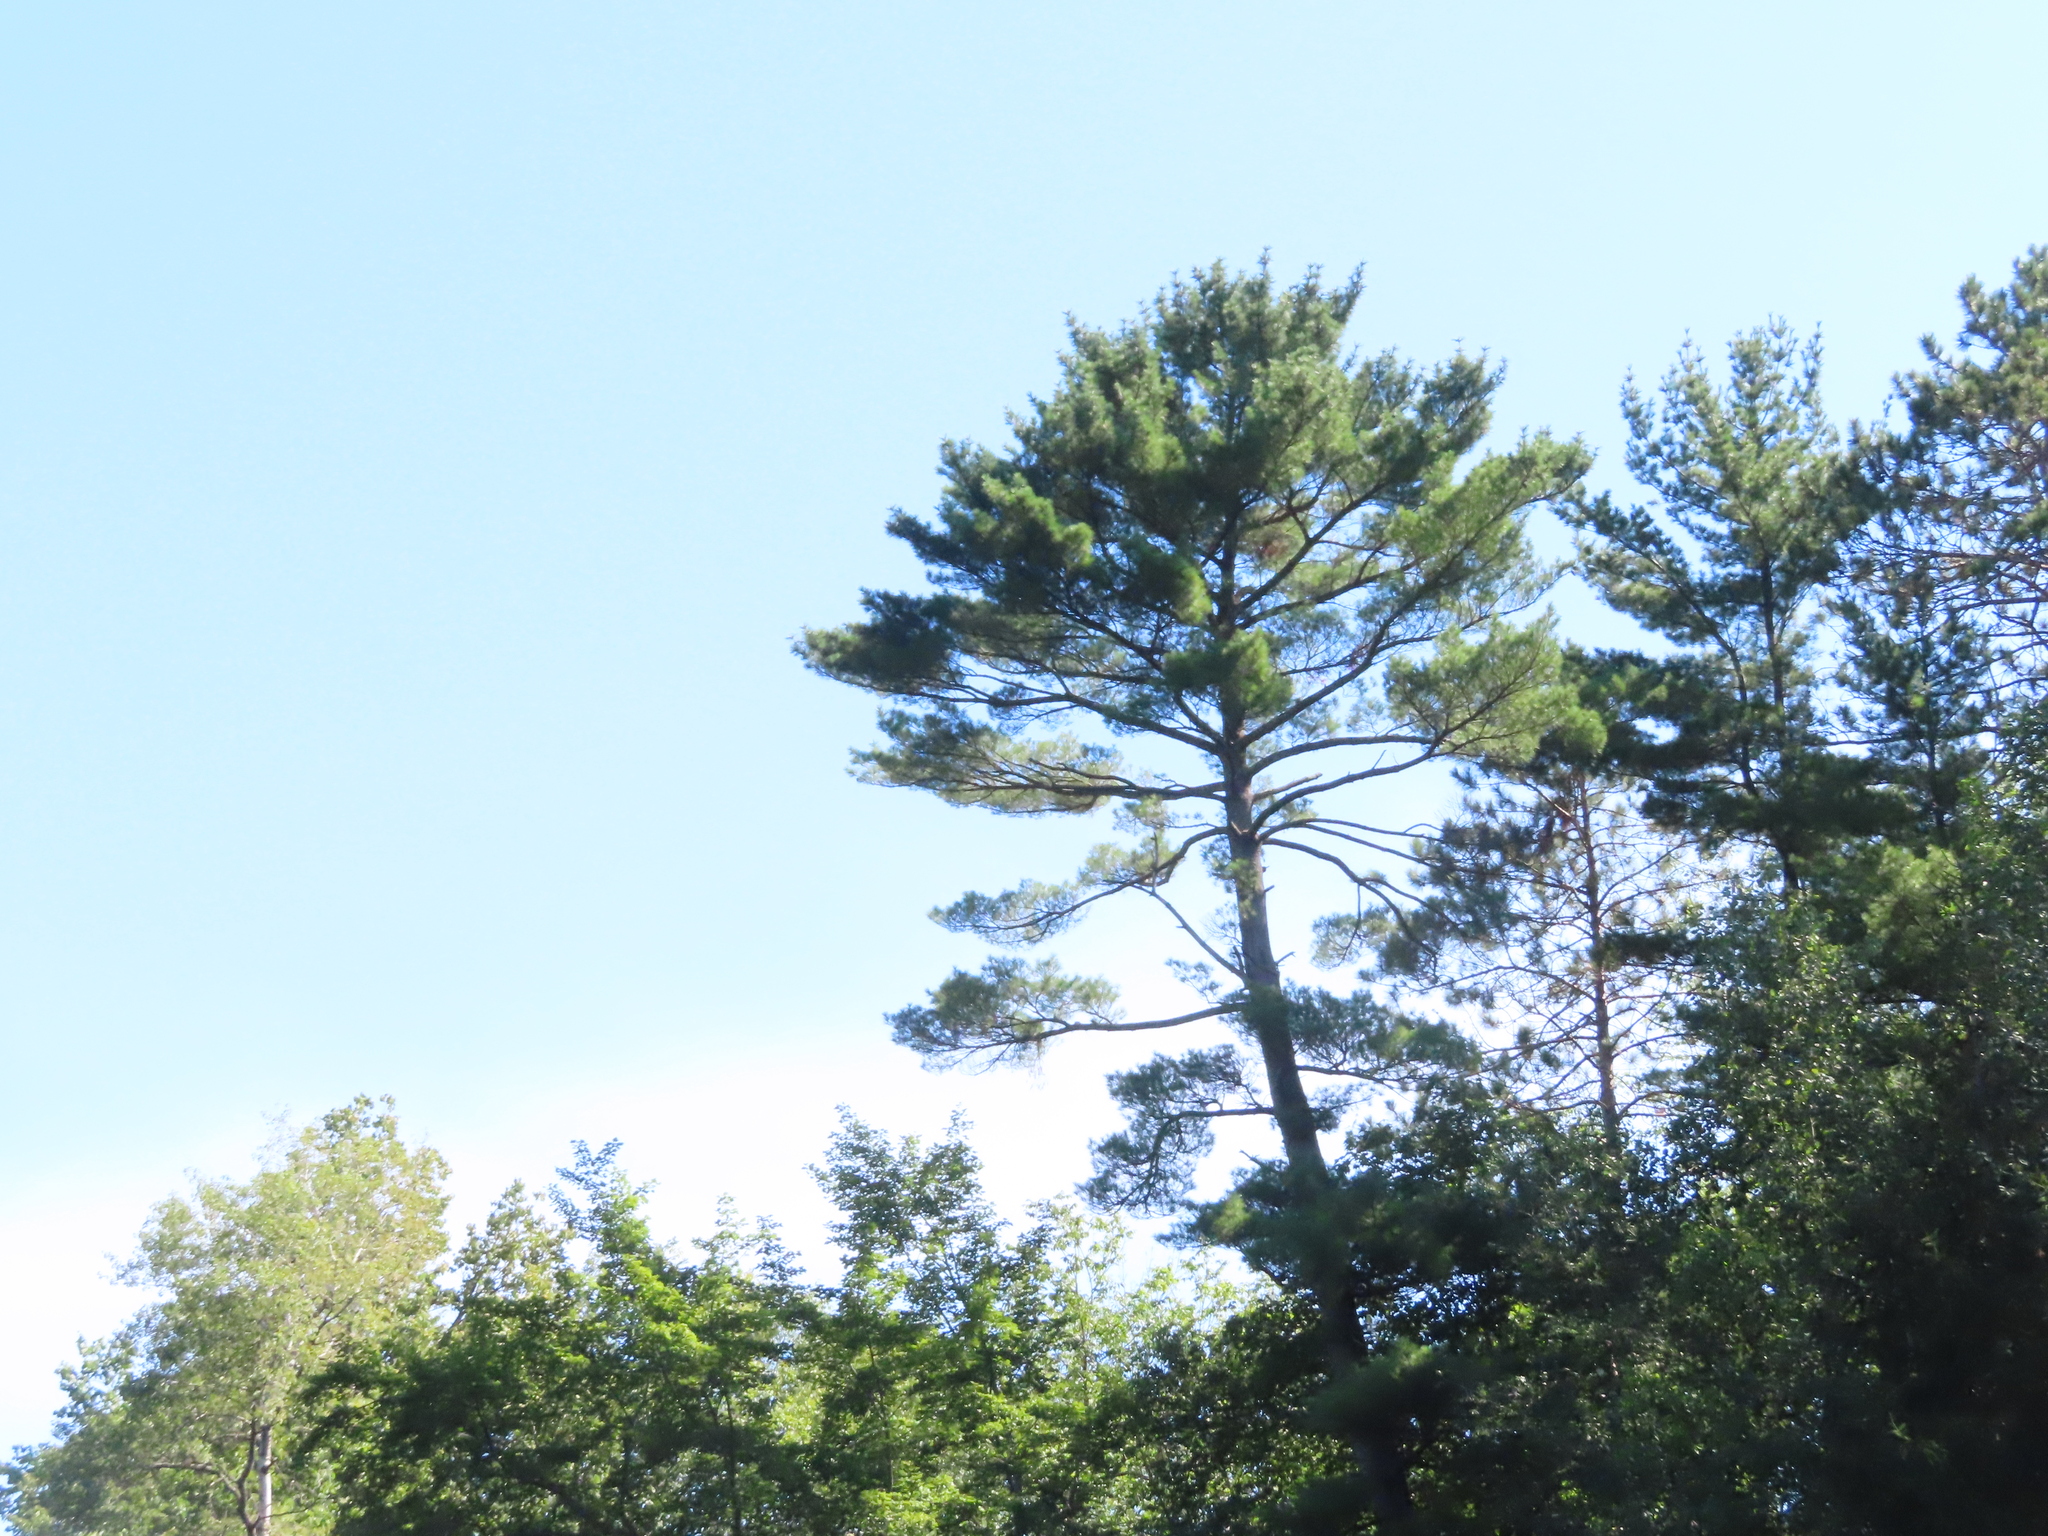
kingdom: Plantae
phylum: Tracheophyta
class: Pinopsida
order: Pinales
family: Pinaceae
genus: Pinus
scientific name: Pinus strobus
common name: Weymouth pine
